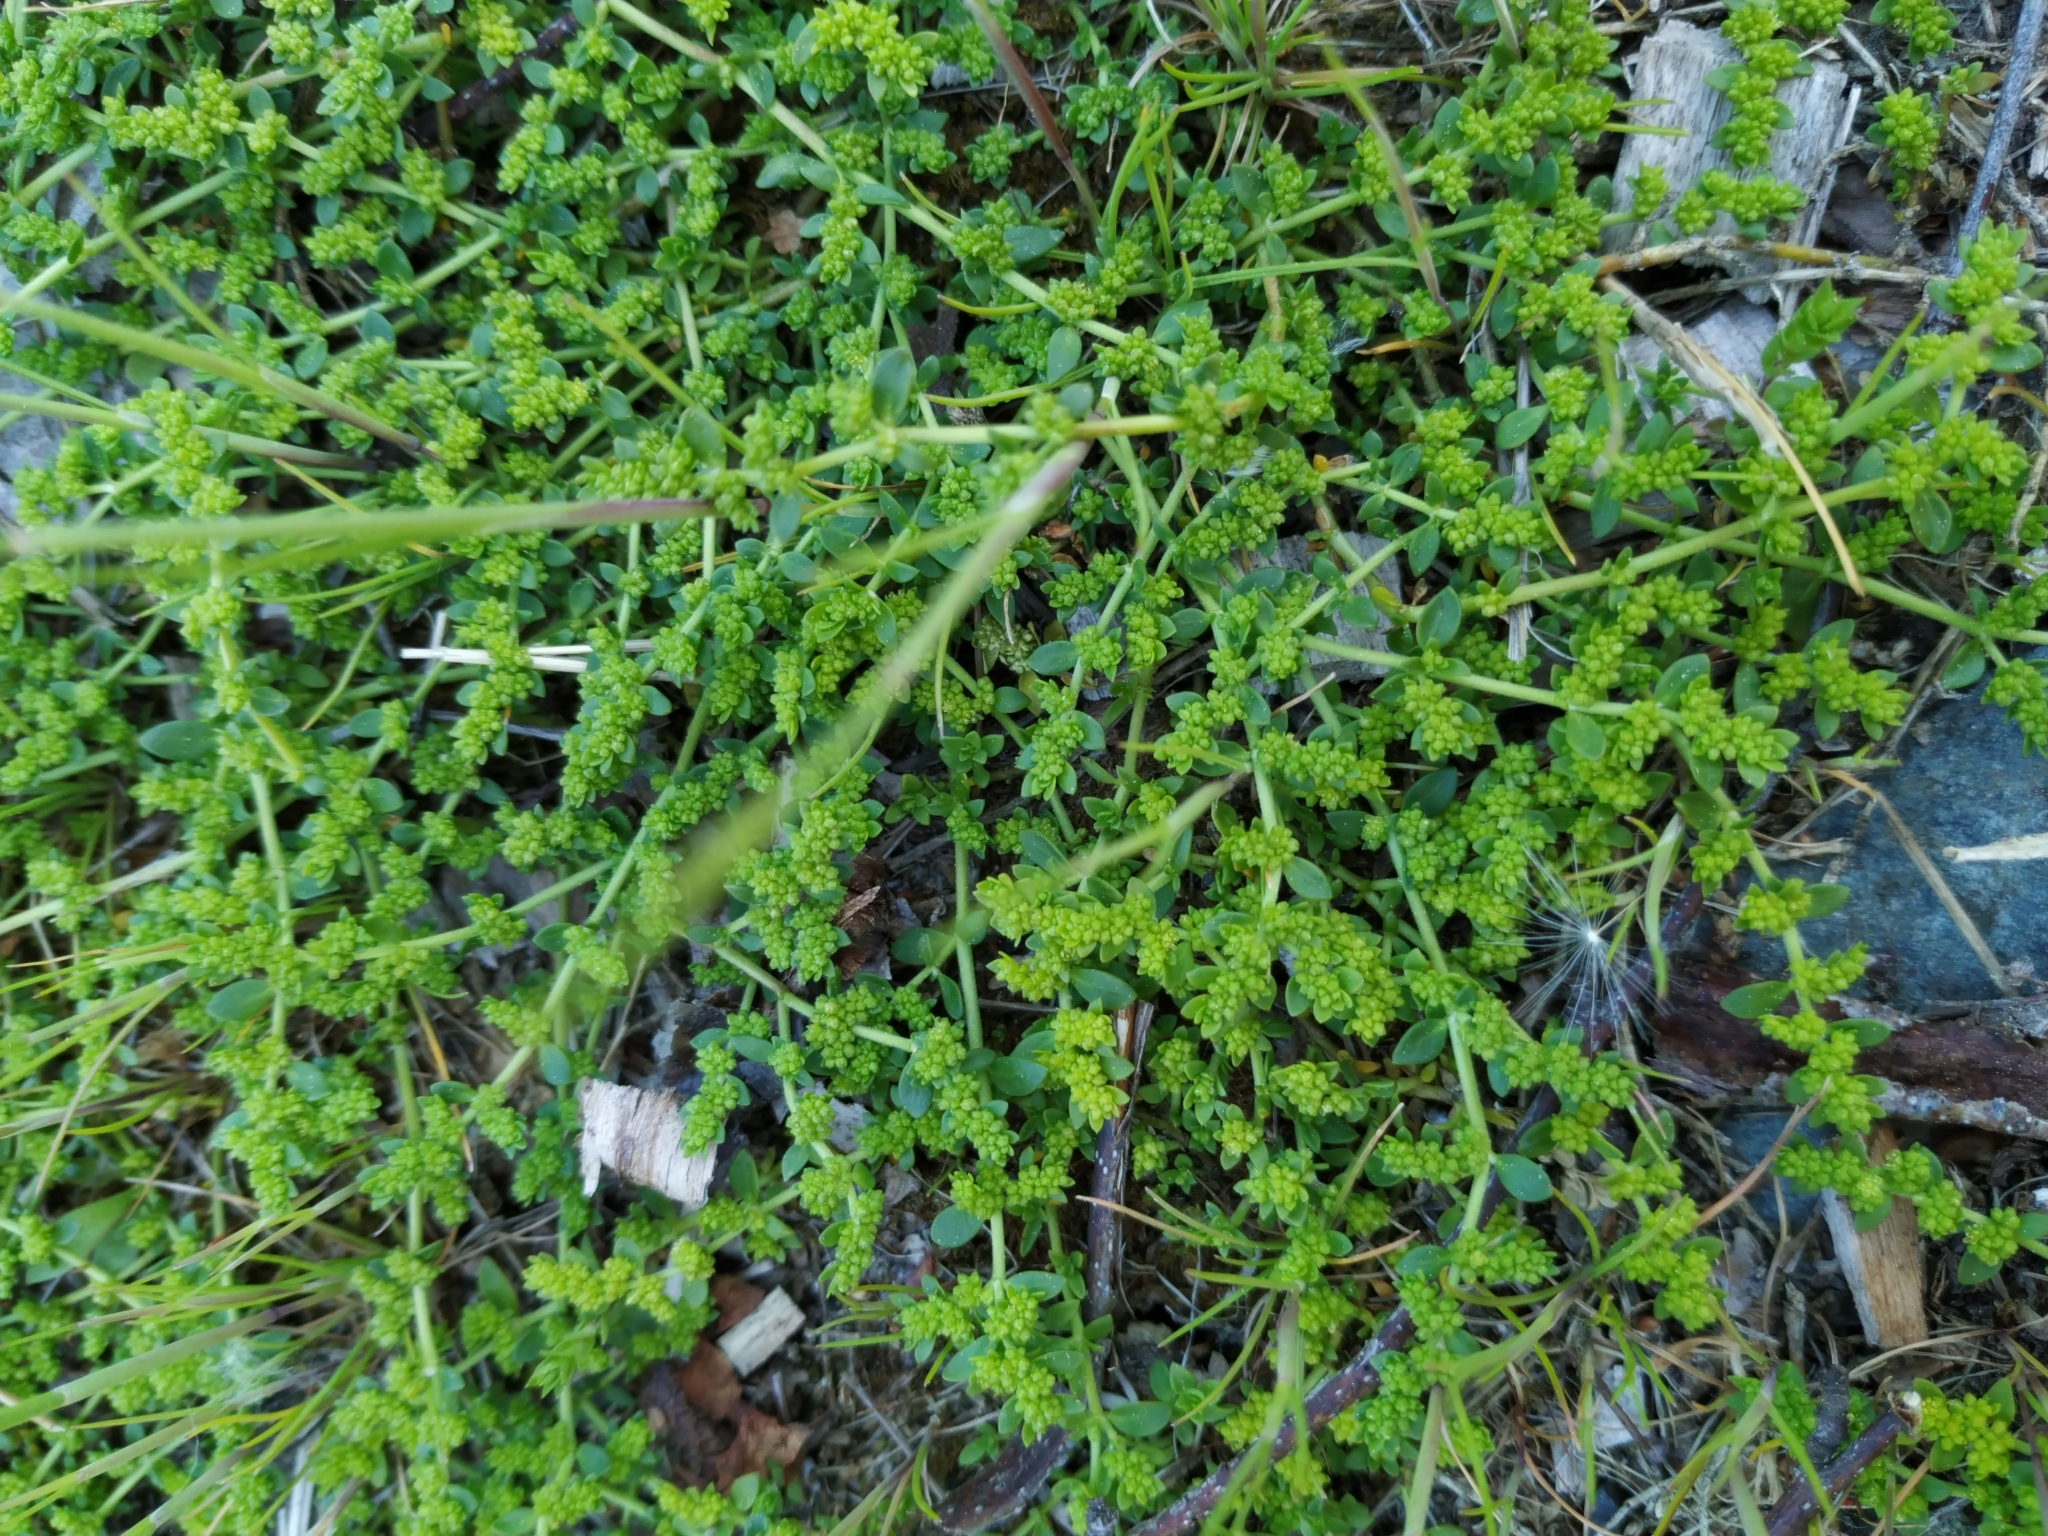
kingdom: Plantae
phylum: Tracheophyta
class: Magnoliopsida
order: Caryophyllales
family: Caryophyllaceae
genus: Herniaria
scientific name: Herniaria glabra
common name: Smooth rupturewort
